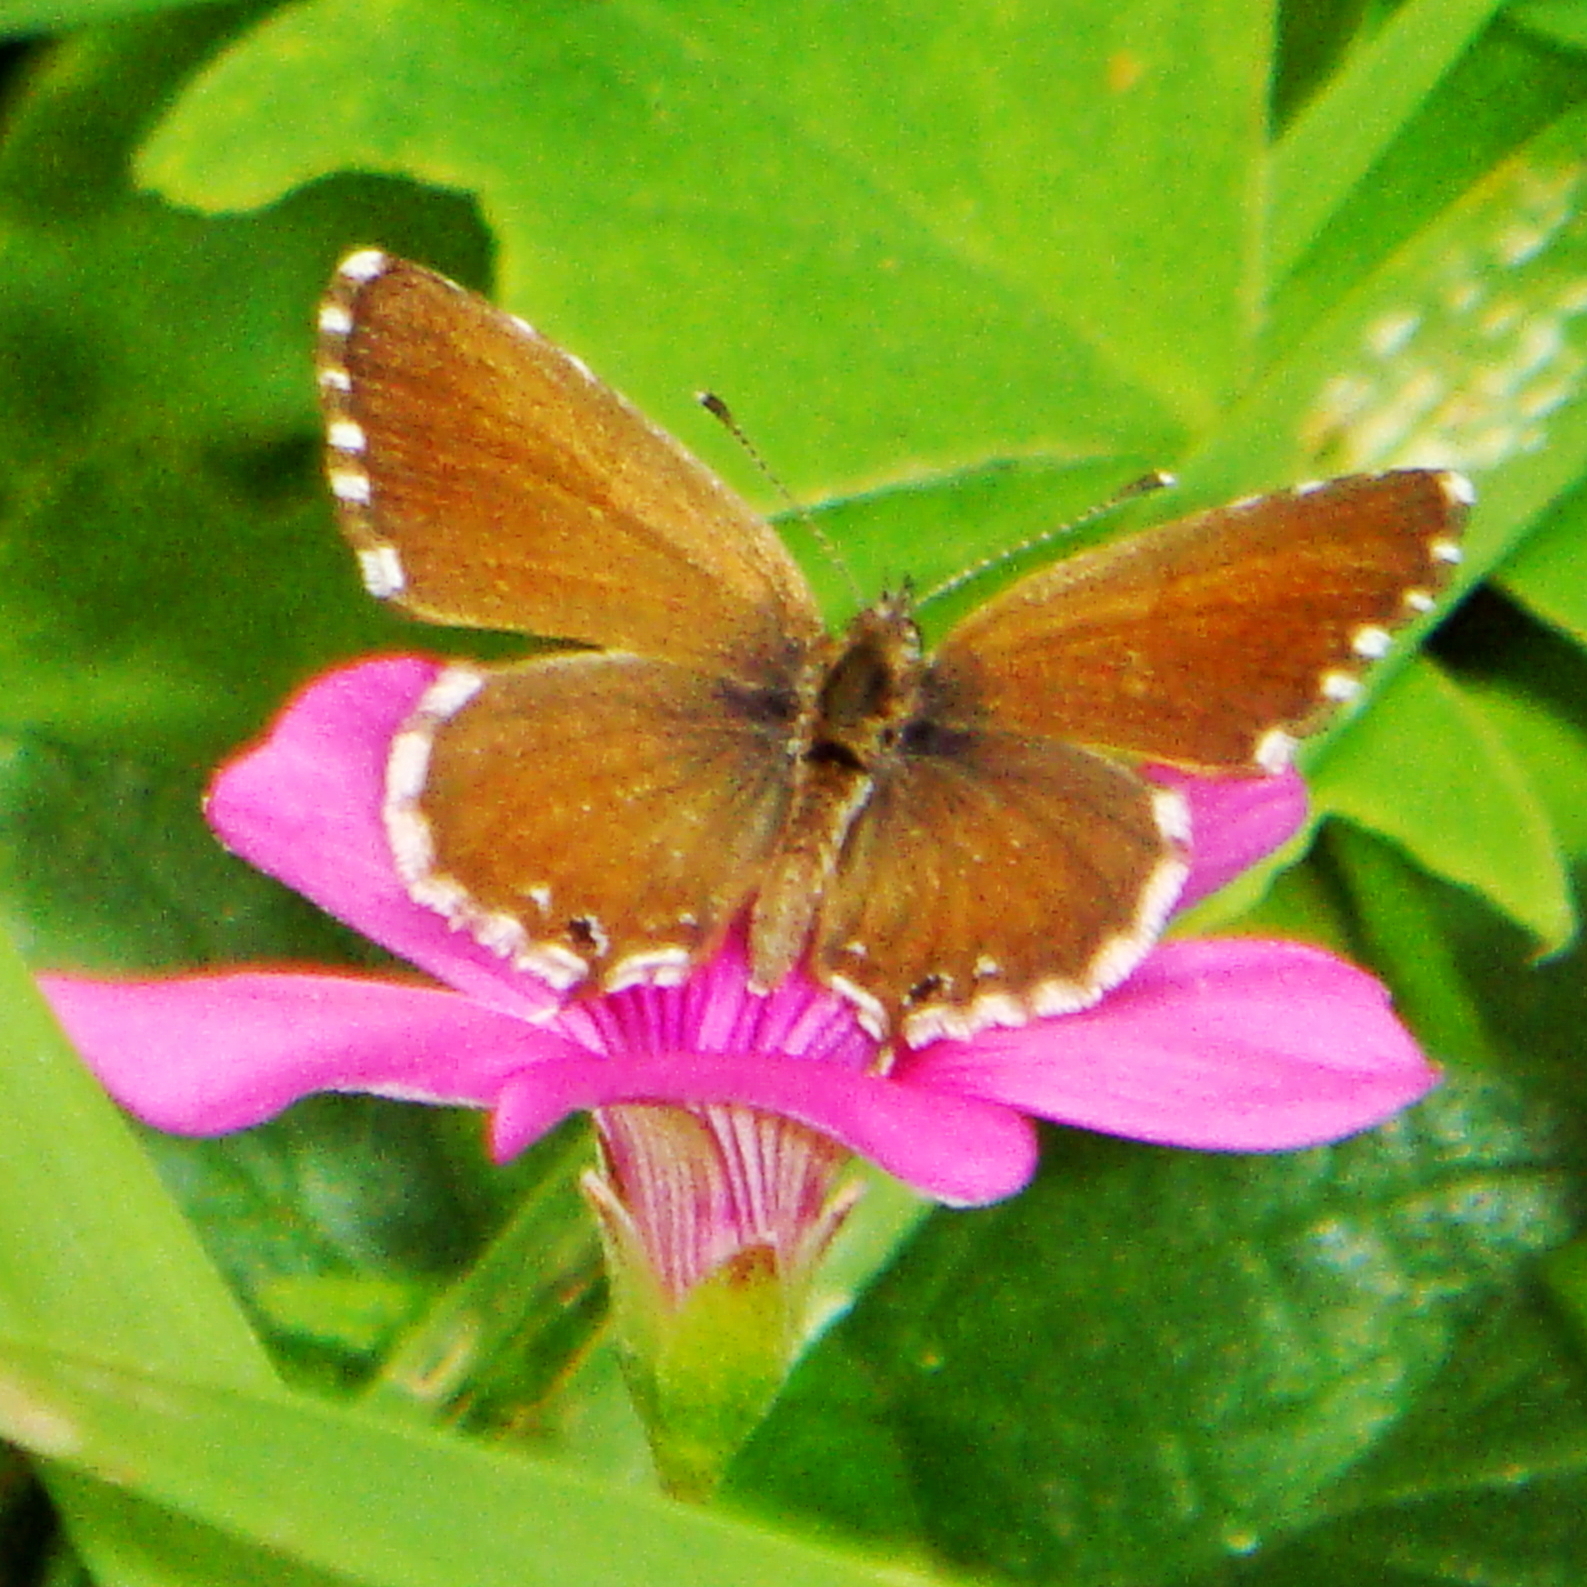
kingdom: Animalia
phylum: Arthropoda
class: Insecta
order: Lepidoptera
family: Lycaenidae
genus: Cacyreus
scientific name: Cacyreus marshalli
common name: Geranium bronze
